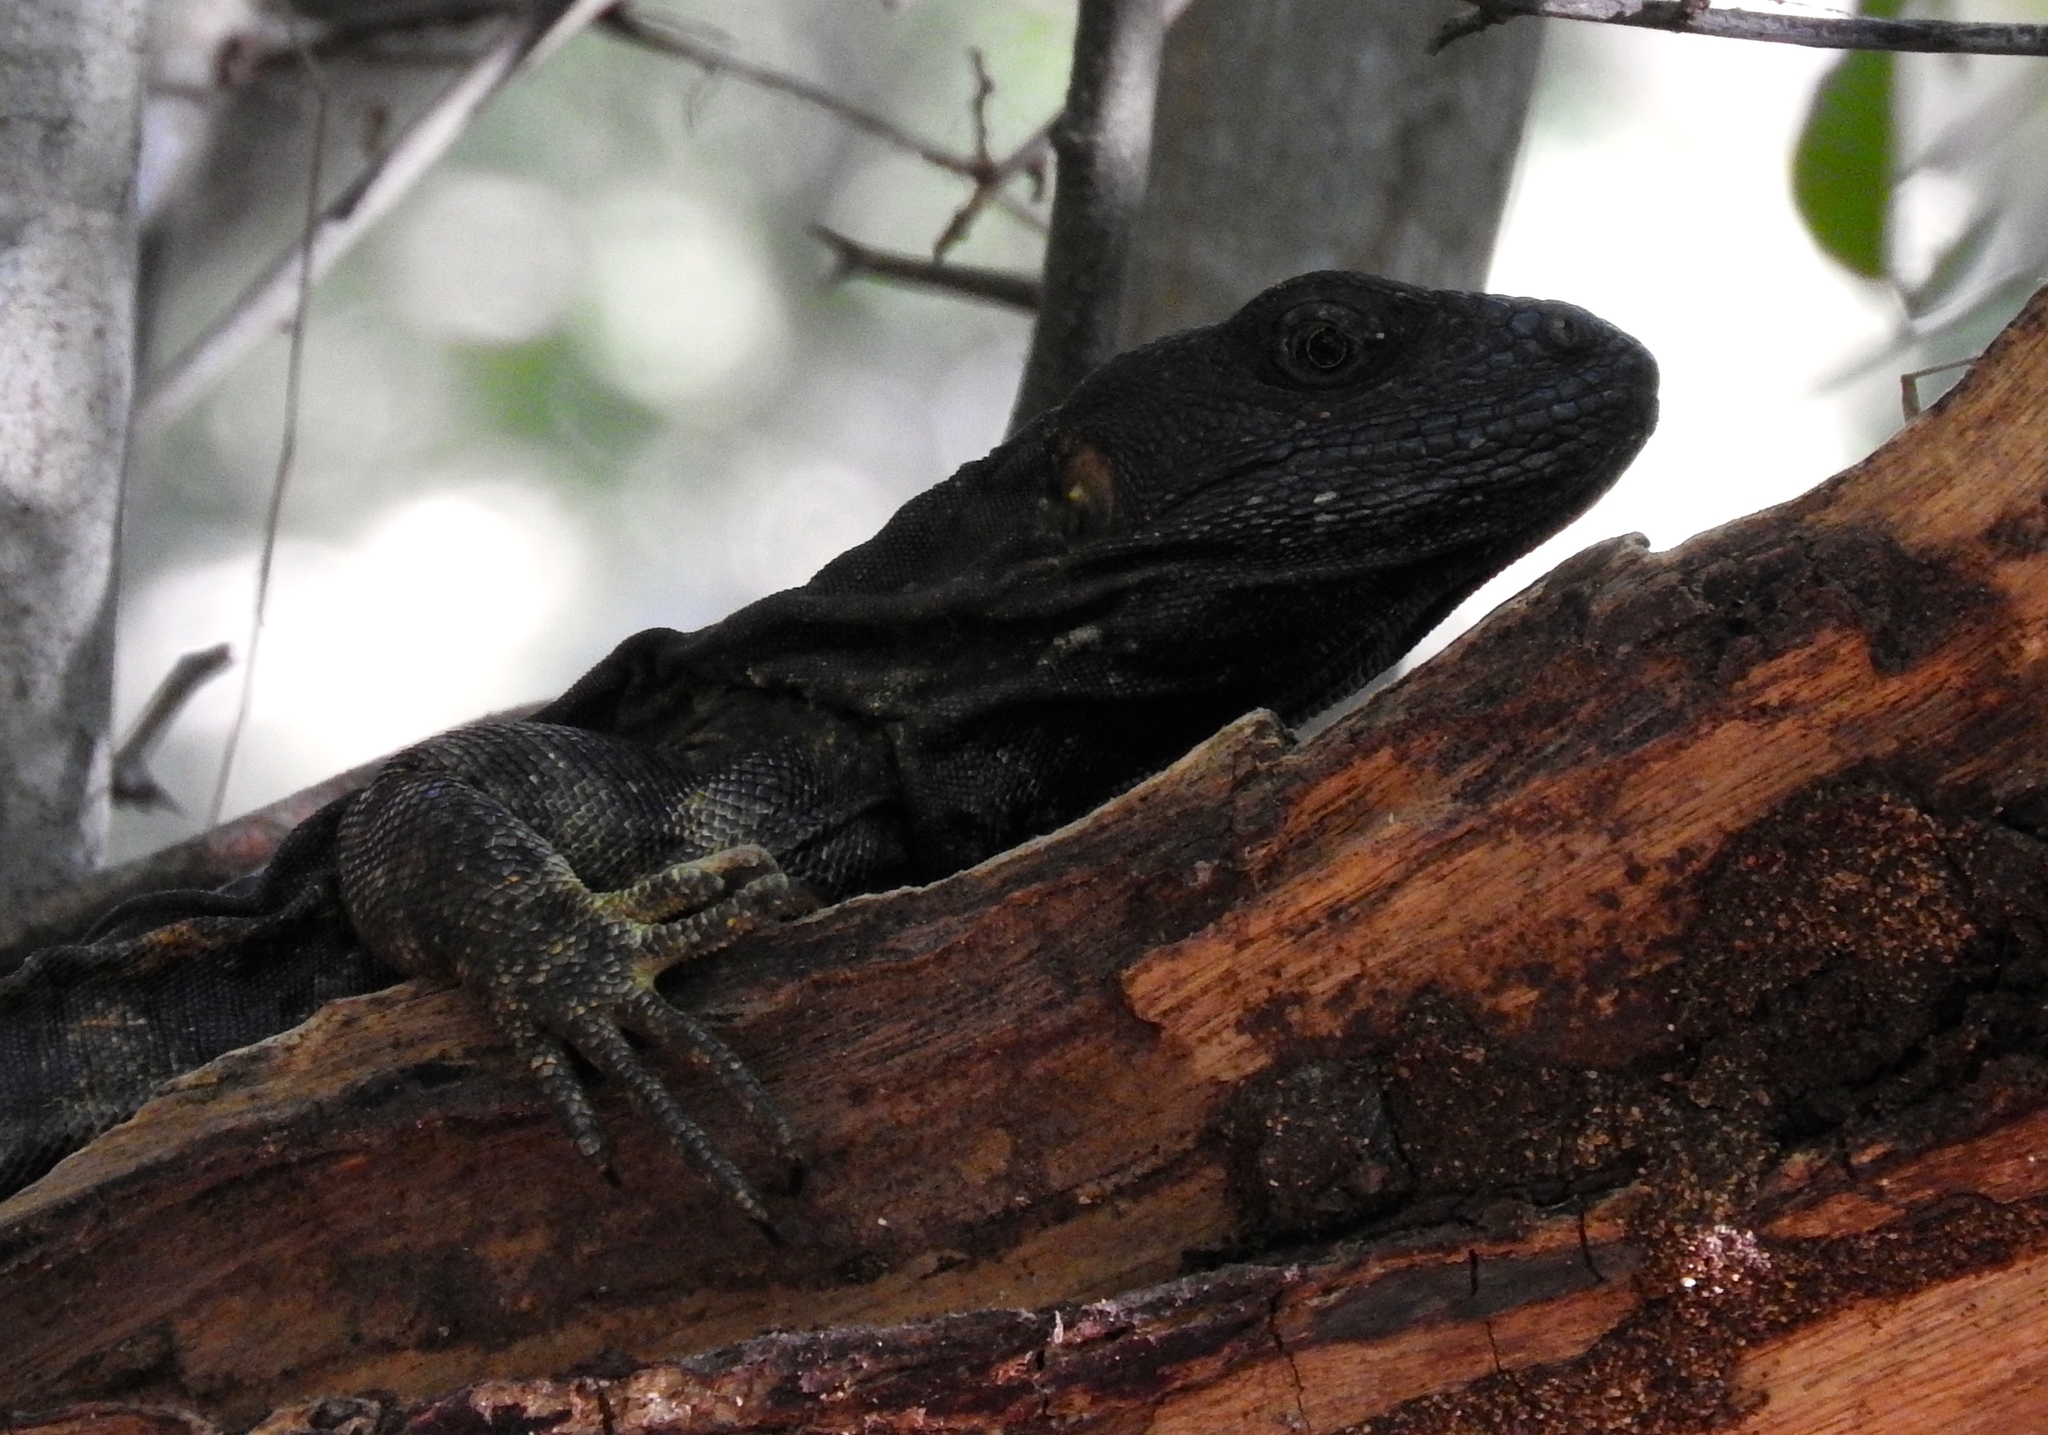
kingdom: Animalia
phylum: Chordata
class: Squamata
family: Iguanidae
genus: Ctenosaura
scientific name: Ctenosaura pectinata
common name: Guerreran spiny-tailed iguana
